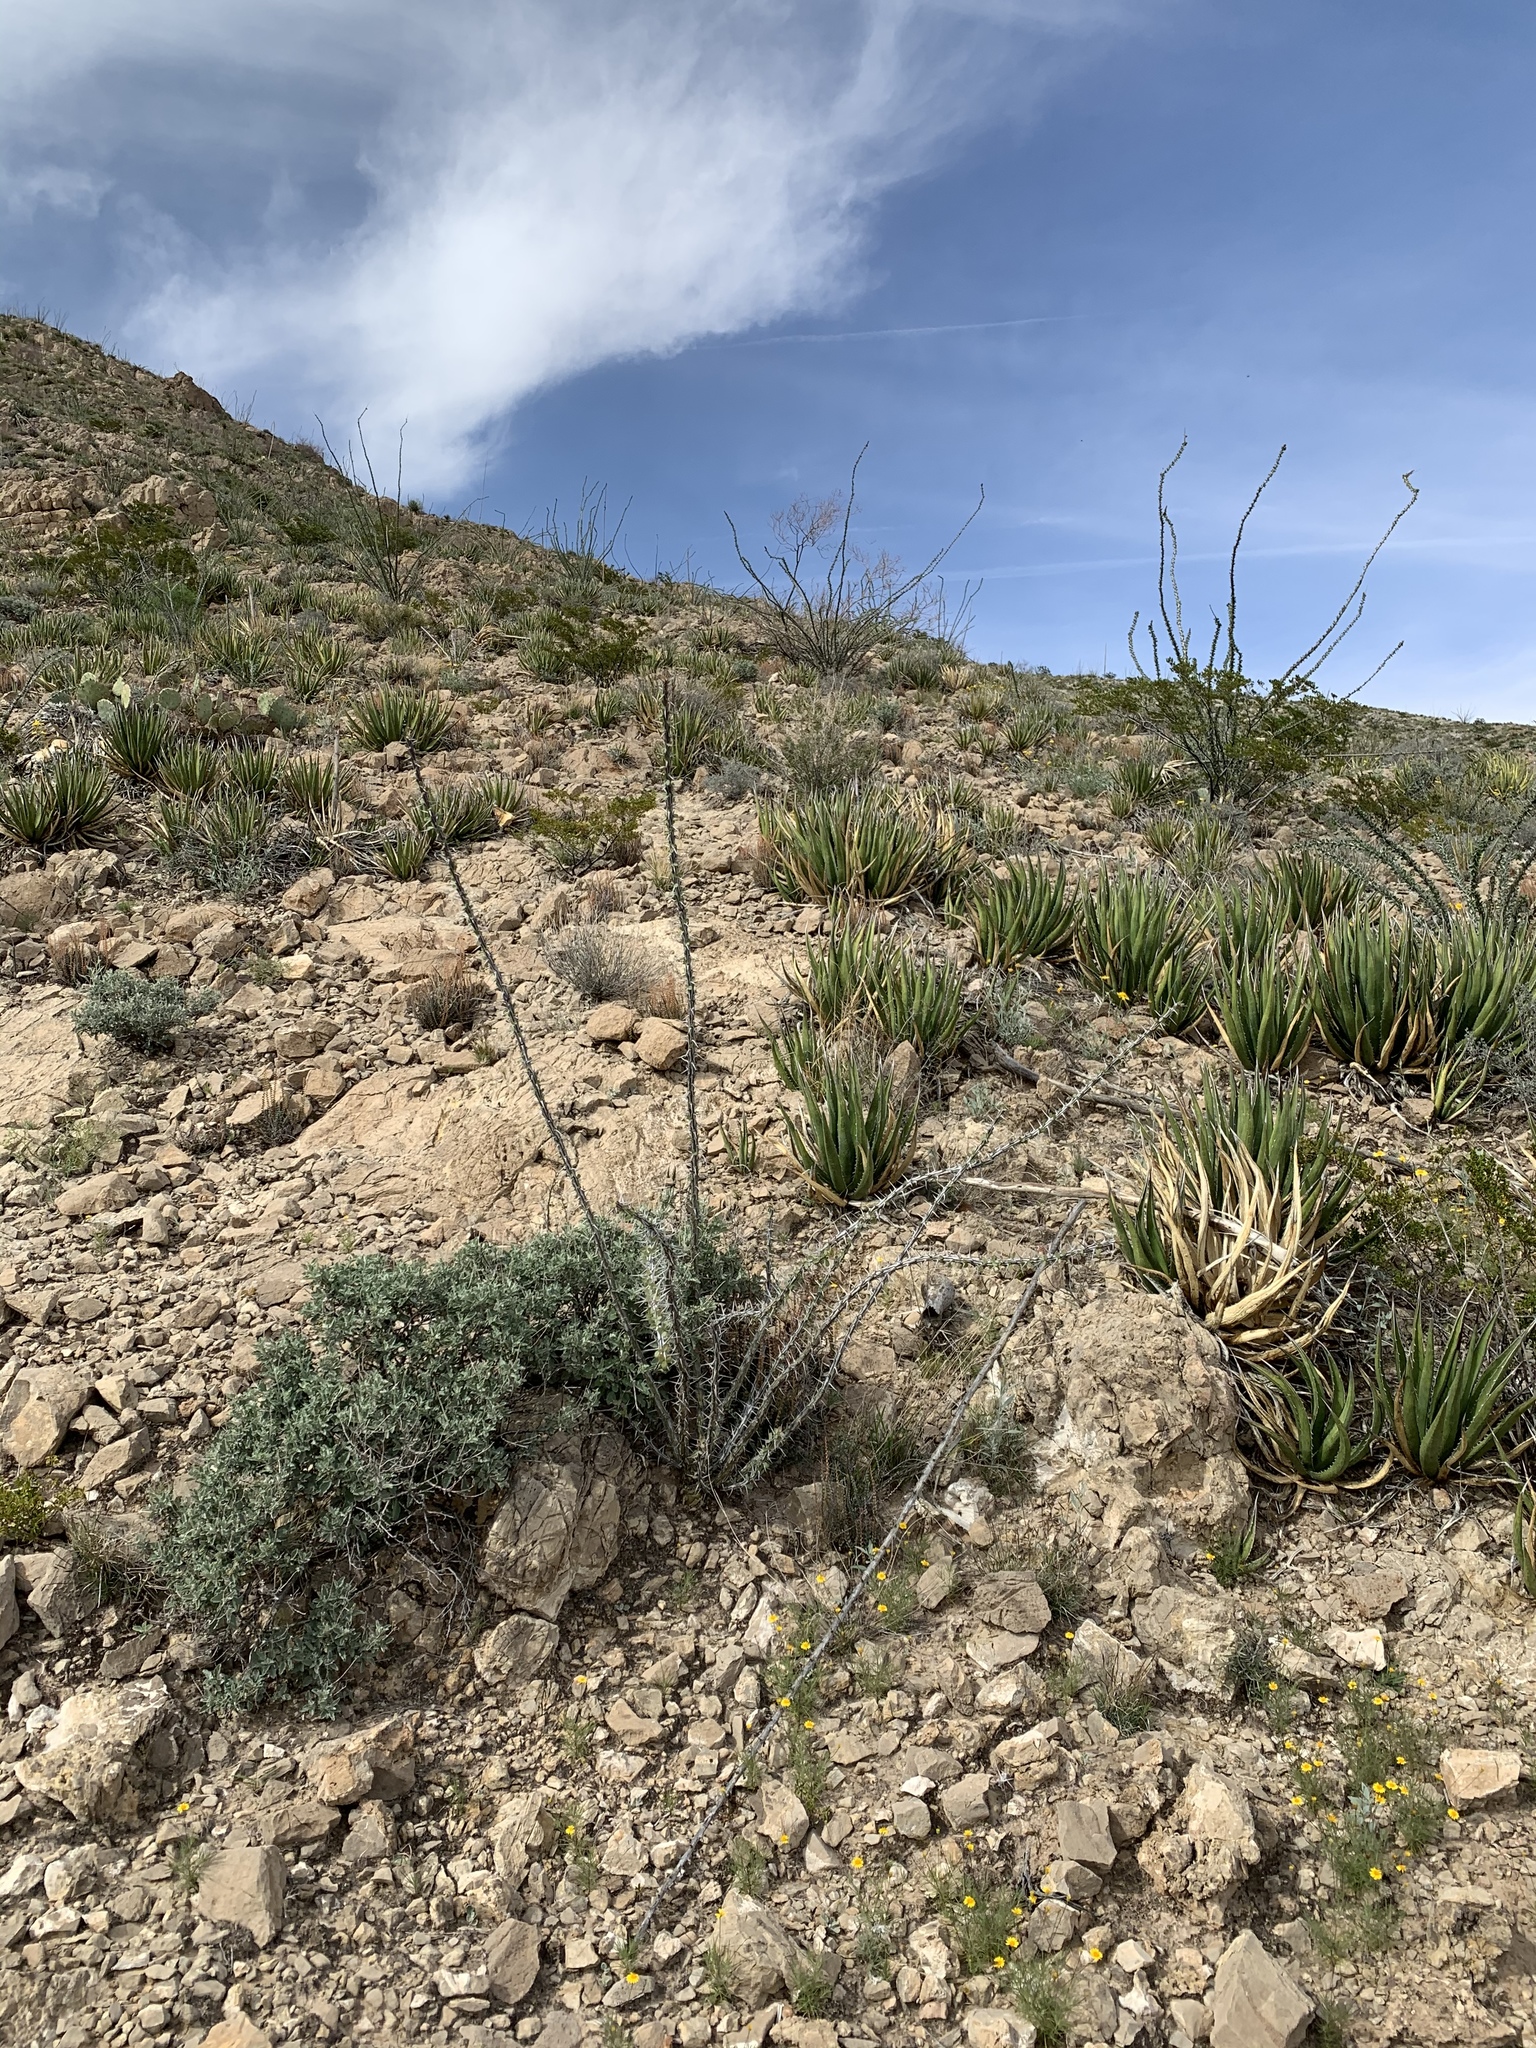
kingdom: Plantae
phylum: Tracheophyta
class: Magnoliopsida
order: Ericales
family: Fouquieriaceae
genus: Fouquieria
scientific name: Fouquieria splendens
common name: Vine-cactus
